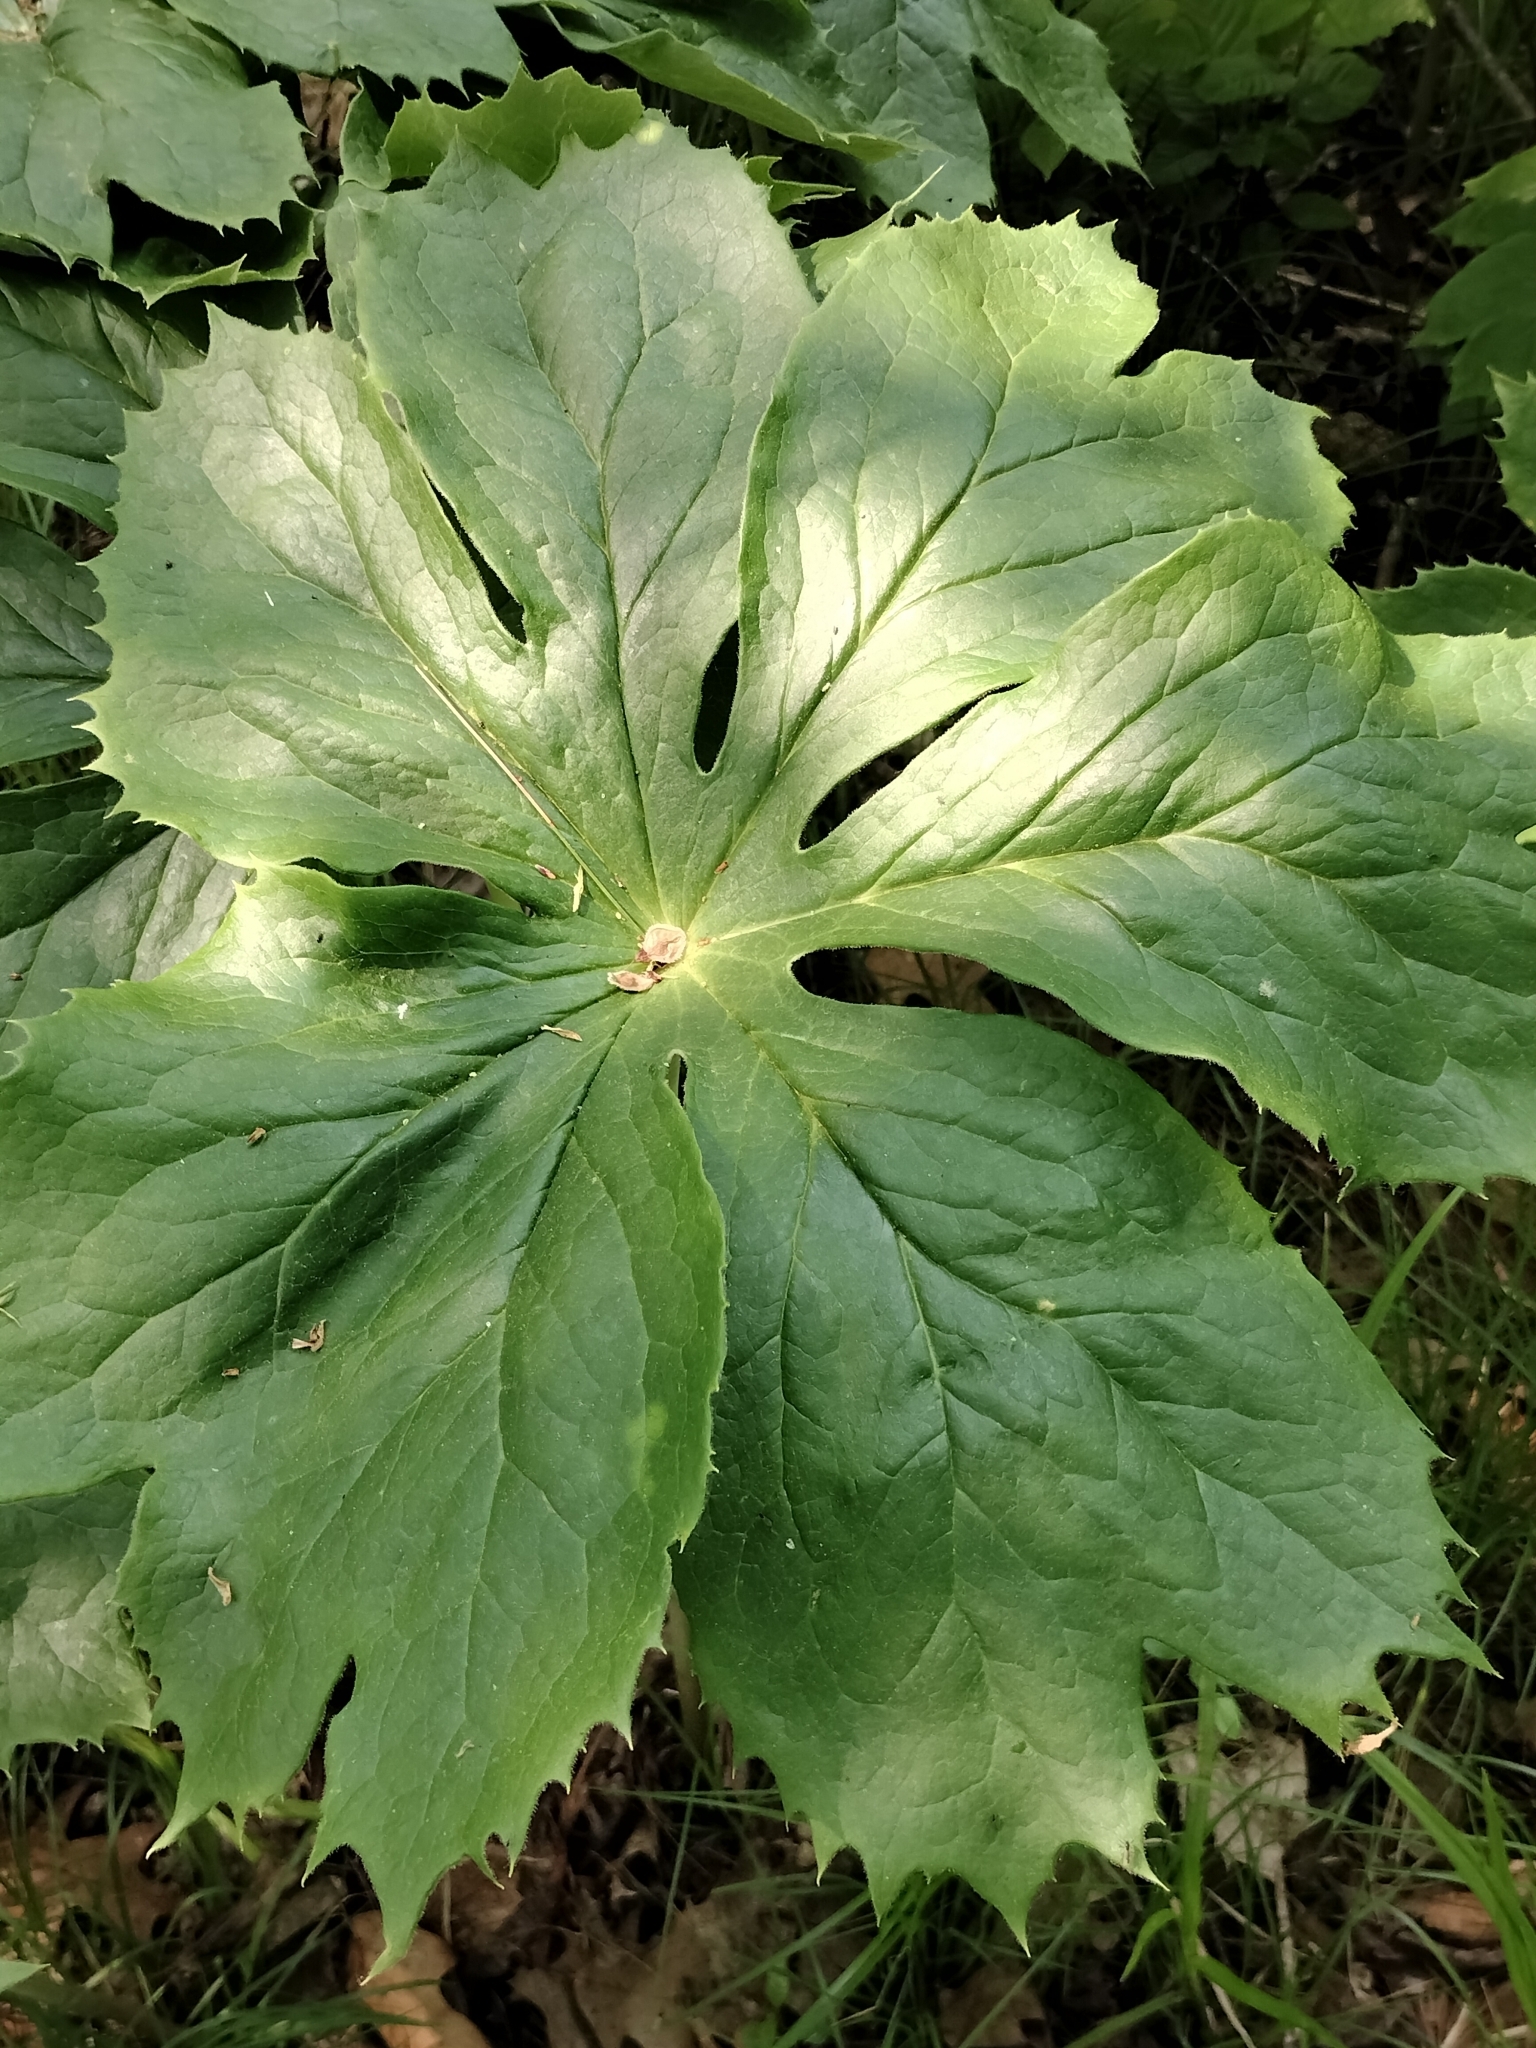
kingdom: Plantae
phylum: Tracheophyta
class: Magnoliopsida
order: Ranunculales
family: Berberidaceae
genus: Podophyllum
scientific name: Podophyllum peltatum
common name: Wild mandrake
